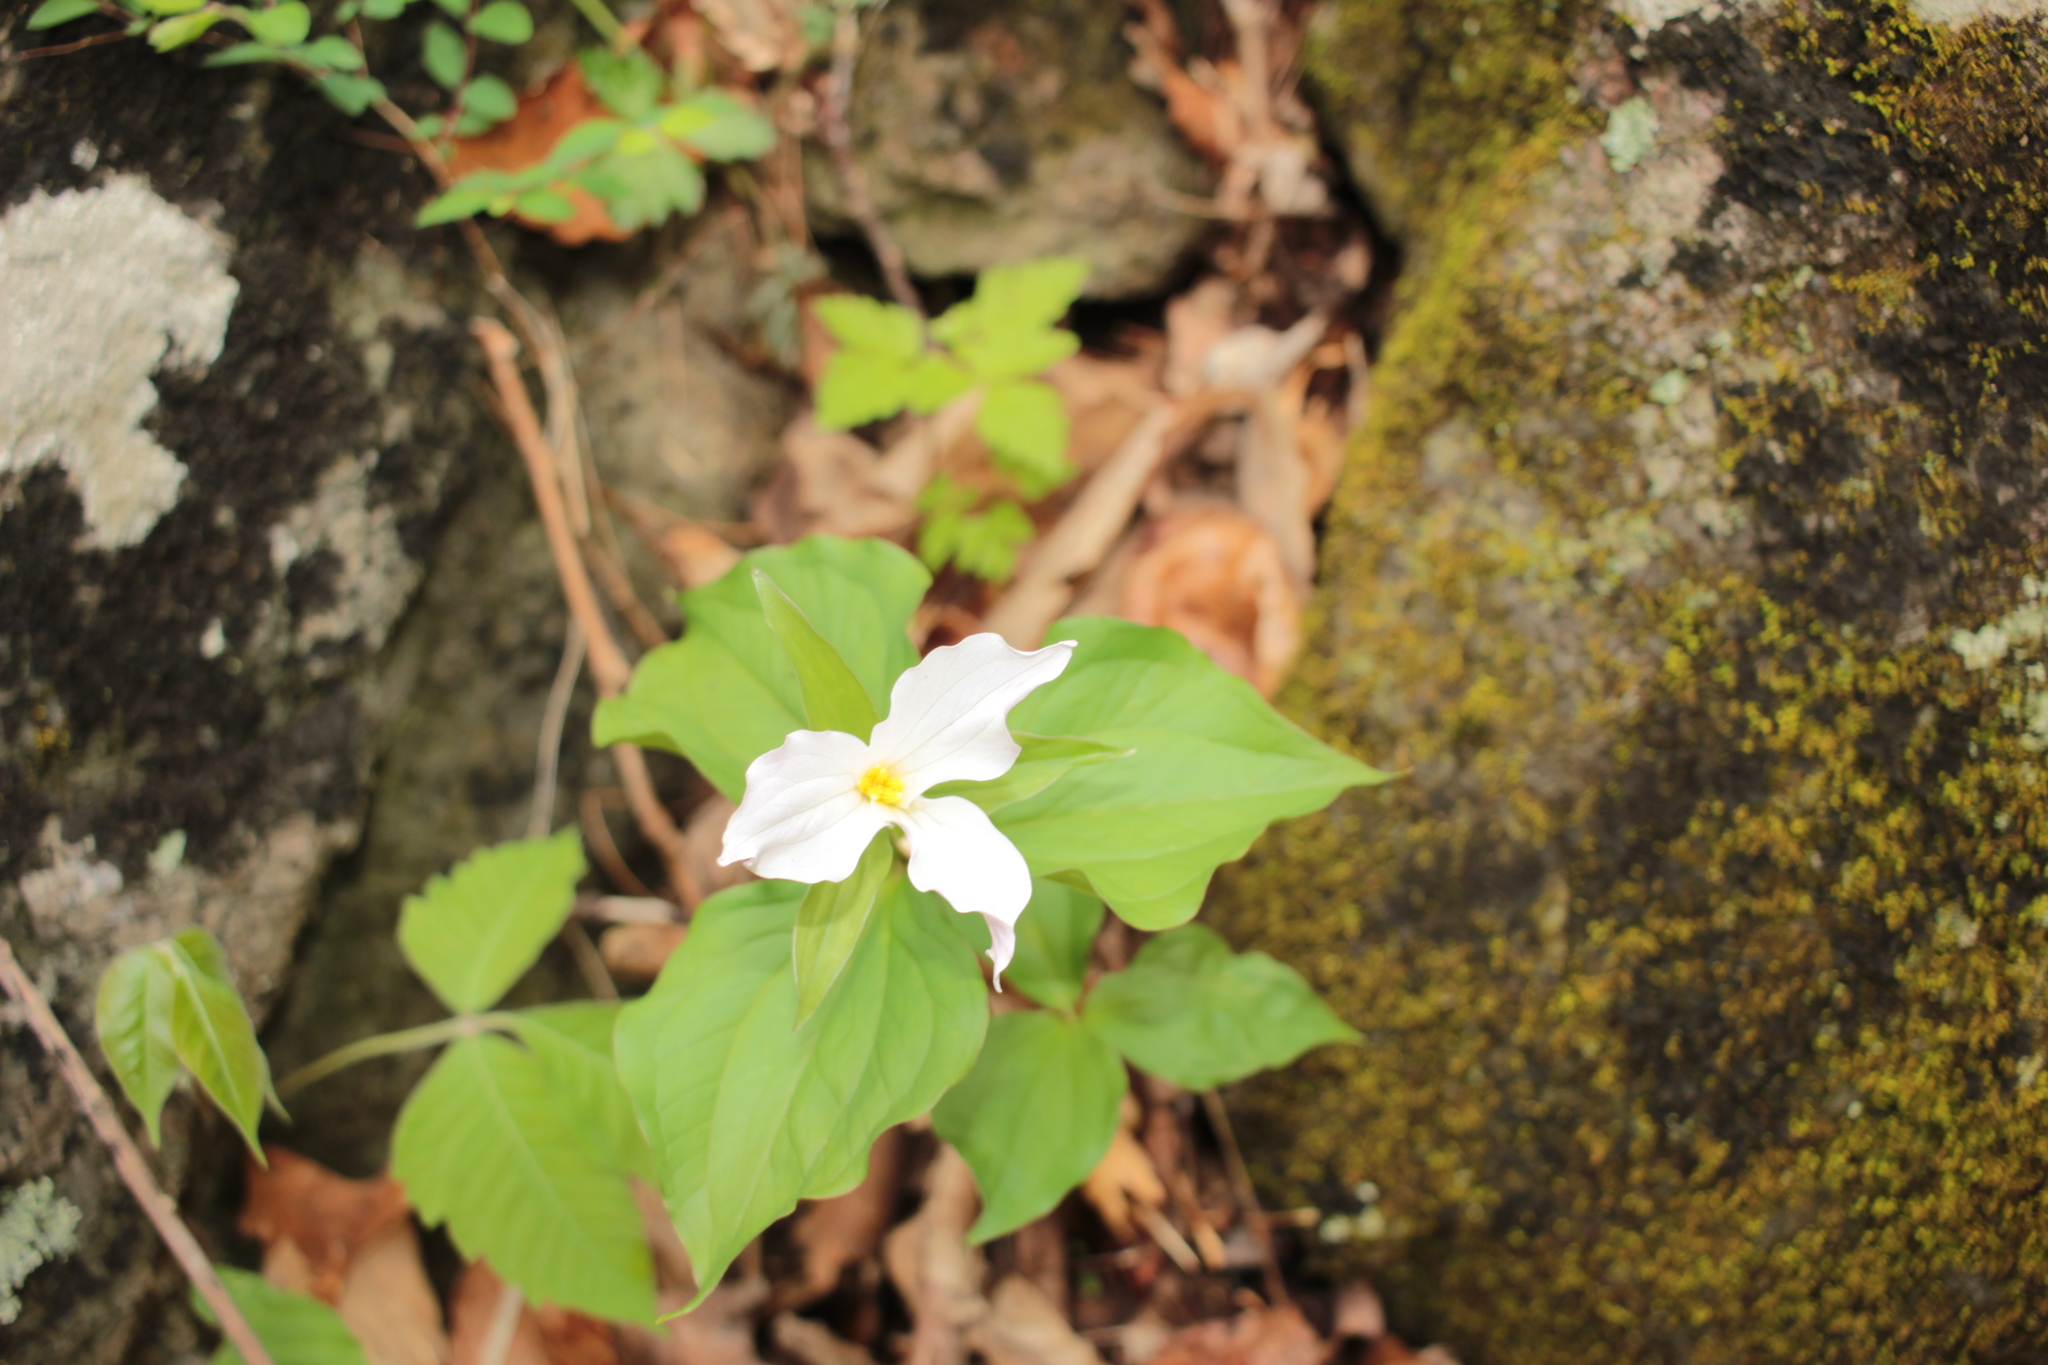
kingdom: Plantae
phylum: Tracheophyta
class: Liliopsida
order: Liliales
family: Melanthiaceae
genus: Trillium
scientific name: Trillium grandiflorum
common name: Great white trillium
